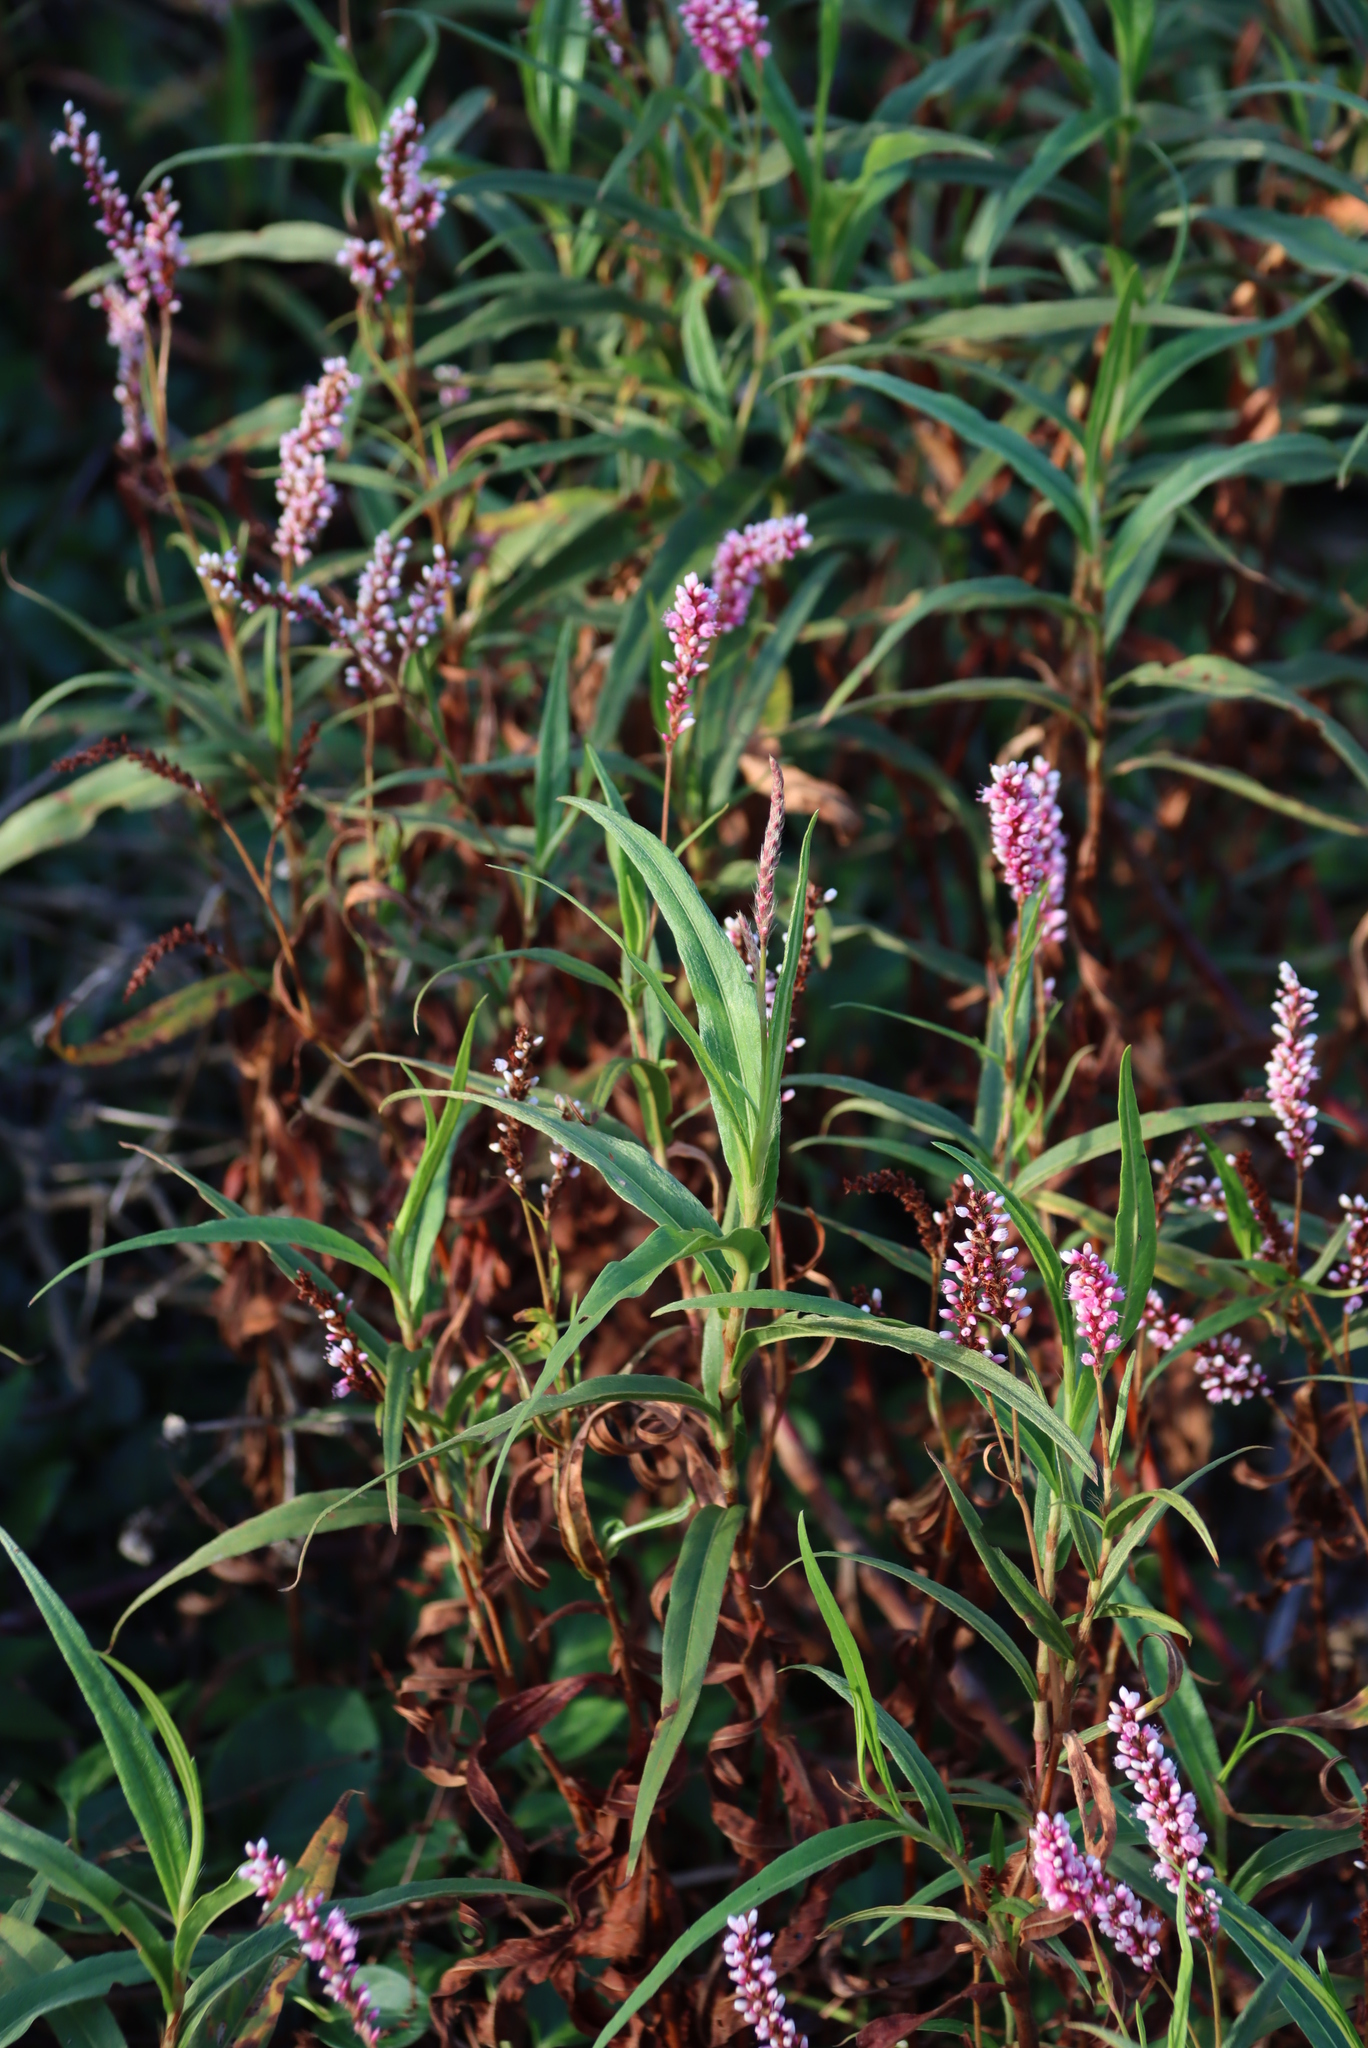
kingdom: Plantae
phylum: Tracheophyta
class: Magnoliopsida
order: Caryophyllales
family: Polygonaceae
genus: Persicaria
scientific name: Persicaria madagascariensis
